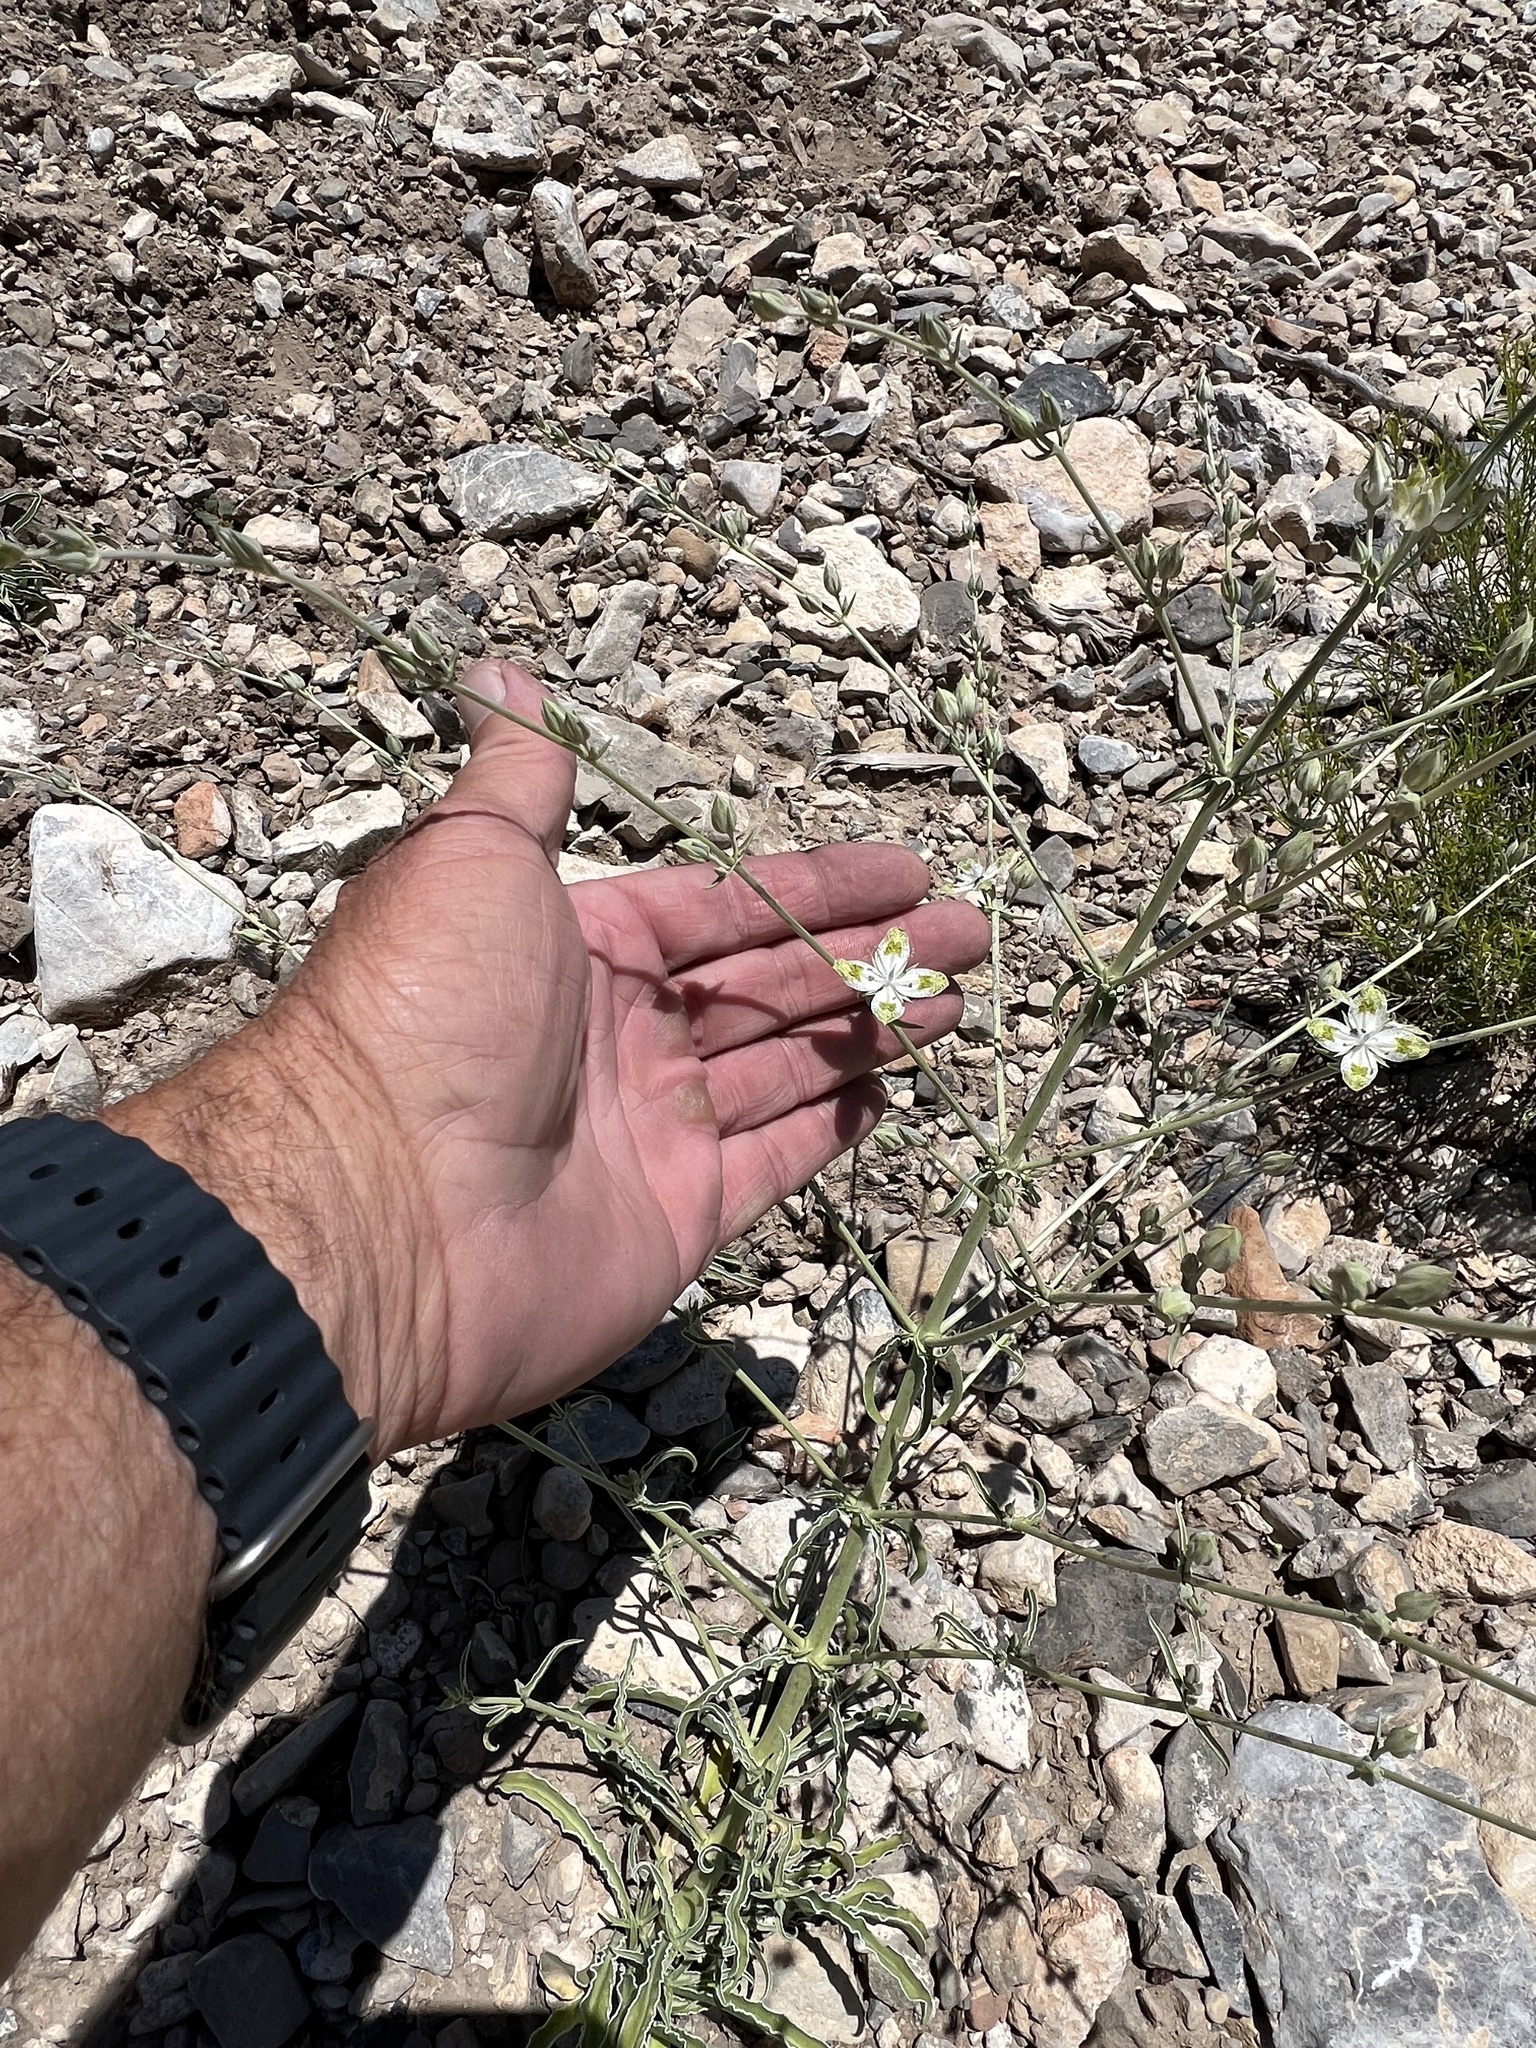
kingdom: Plantae
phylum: Tracheophyta
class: Magnoliopsida
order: Gentianales
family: Gentianaceae
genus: Frasera
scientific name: Frasera albomarginata
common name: Desert frasera
